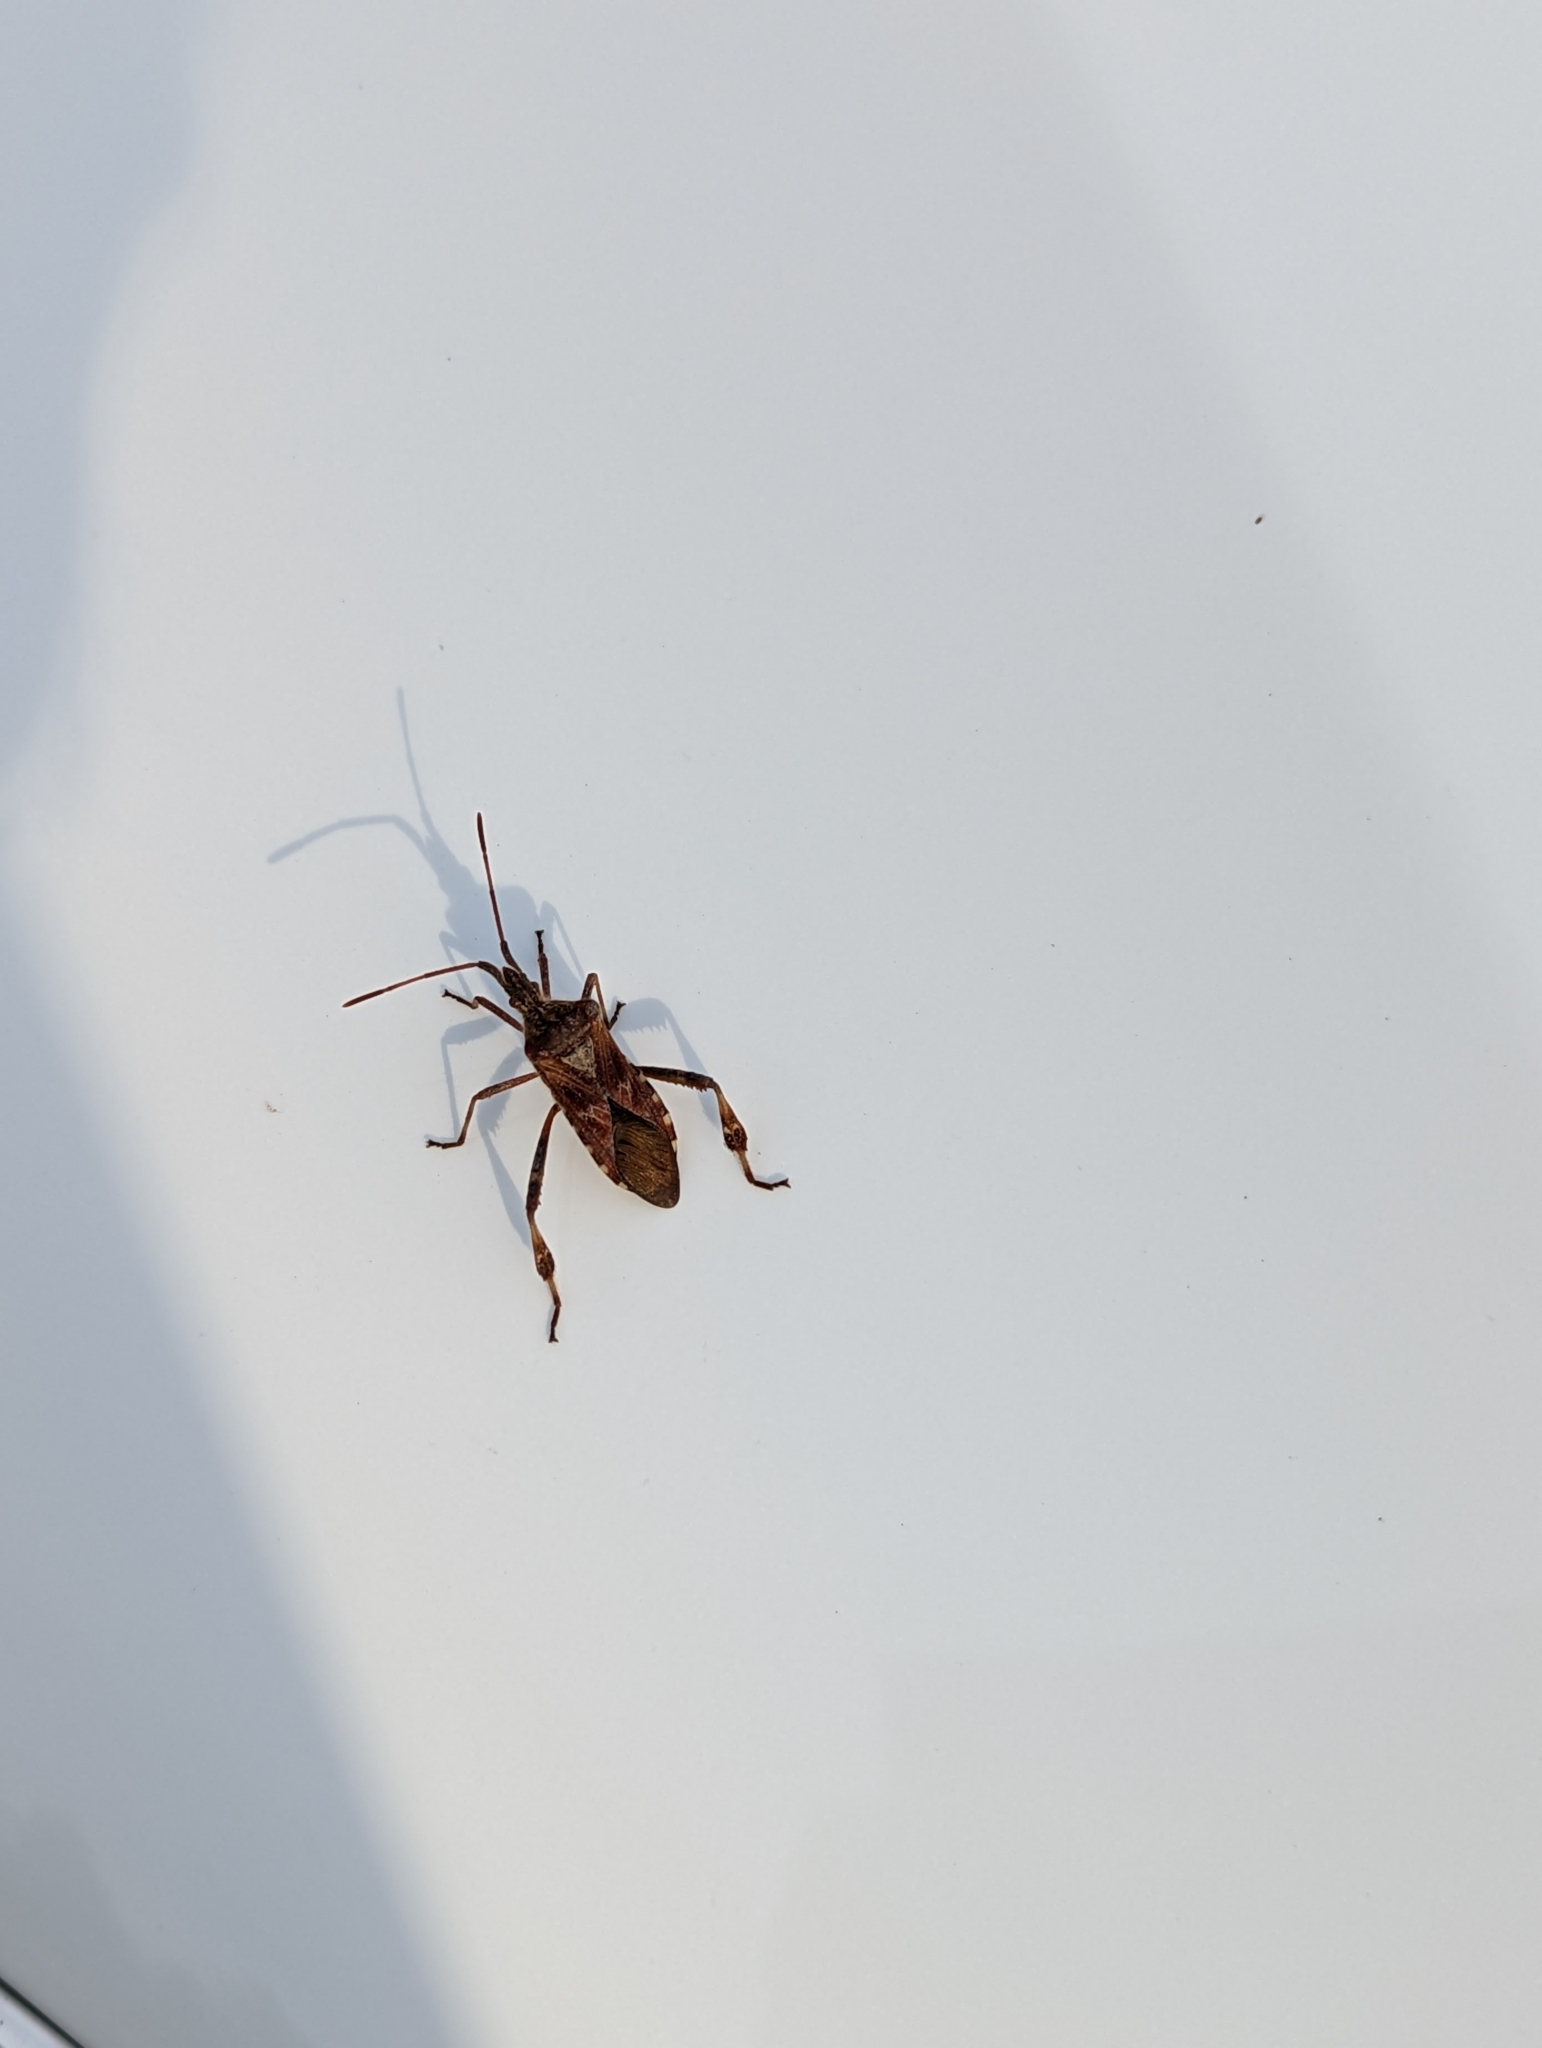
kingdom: Animalia
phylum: Arthropoda
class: Insecta
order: Hemiptera
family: Coreidae
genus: Leptoglossus
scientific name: Leptoglossus occidentalis
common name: Western conifer-seed bug
